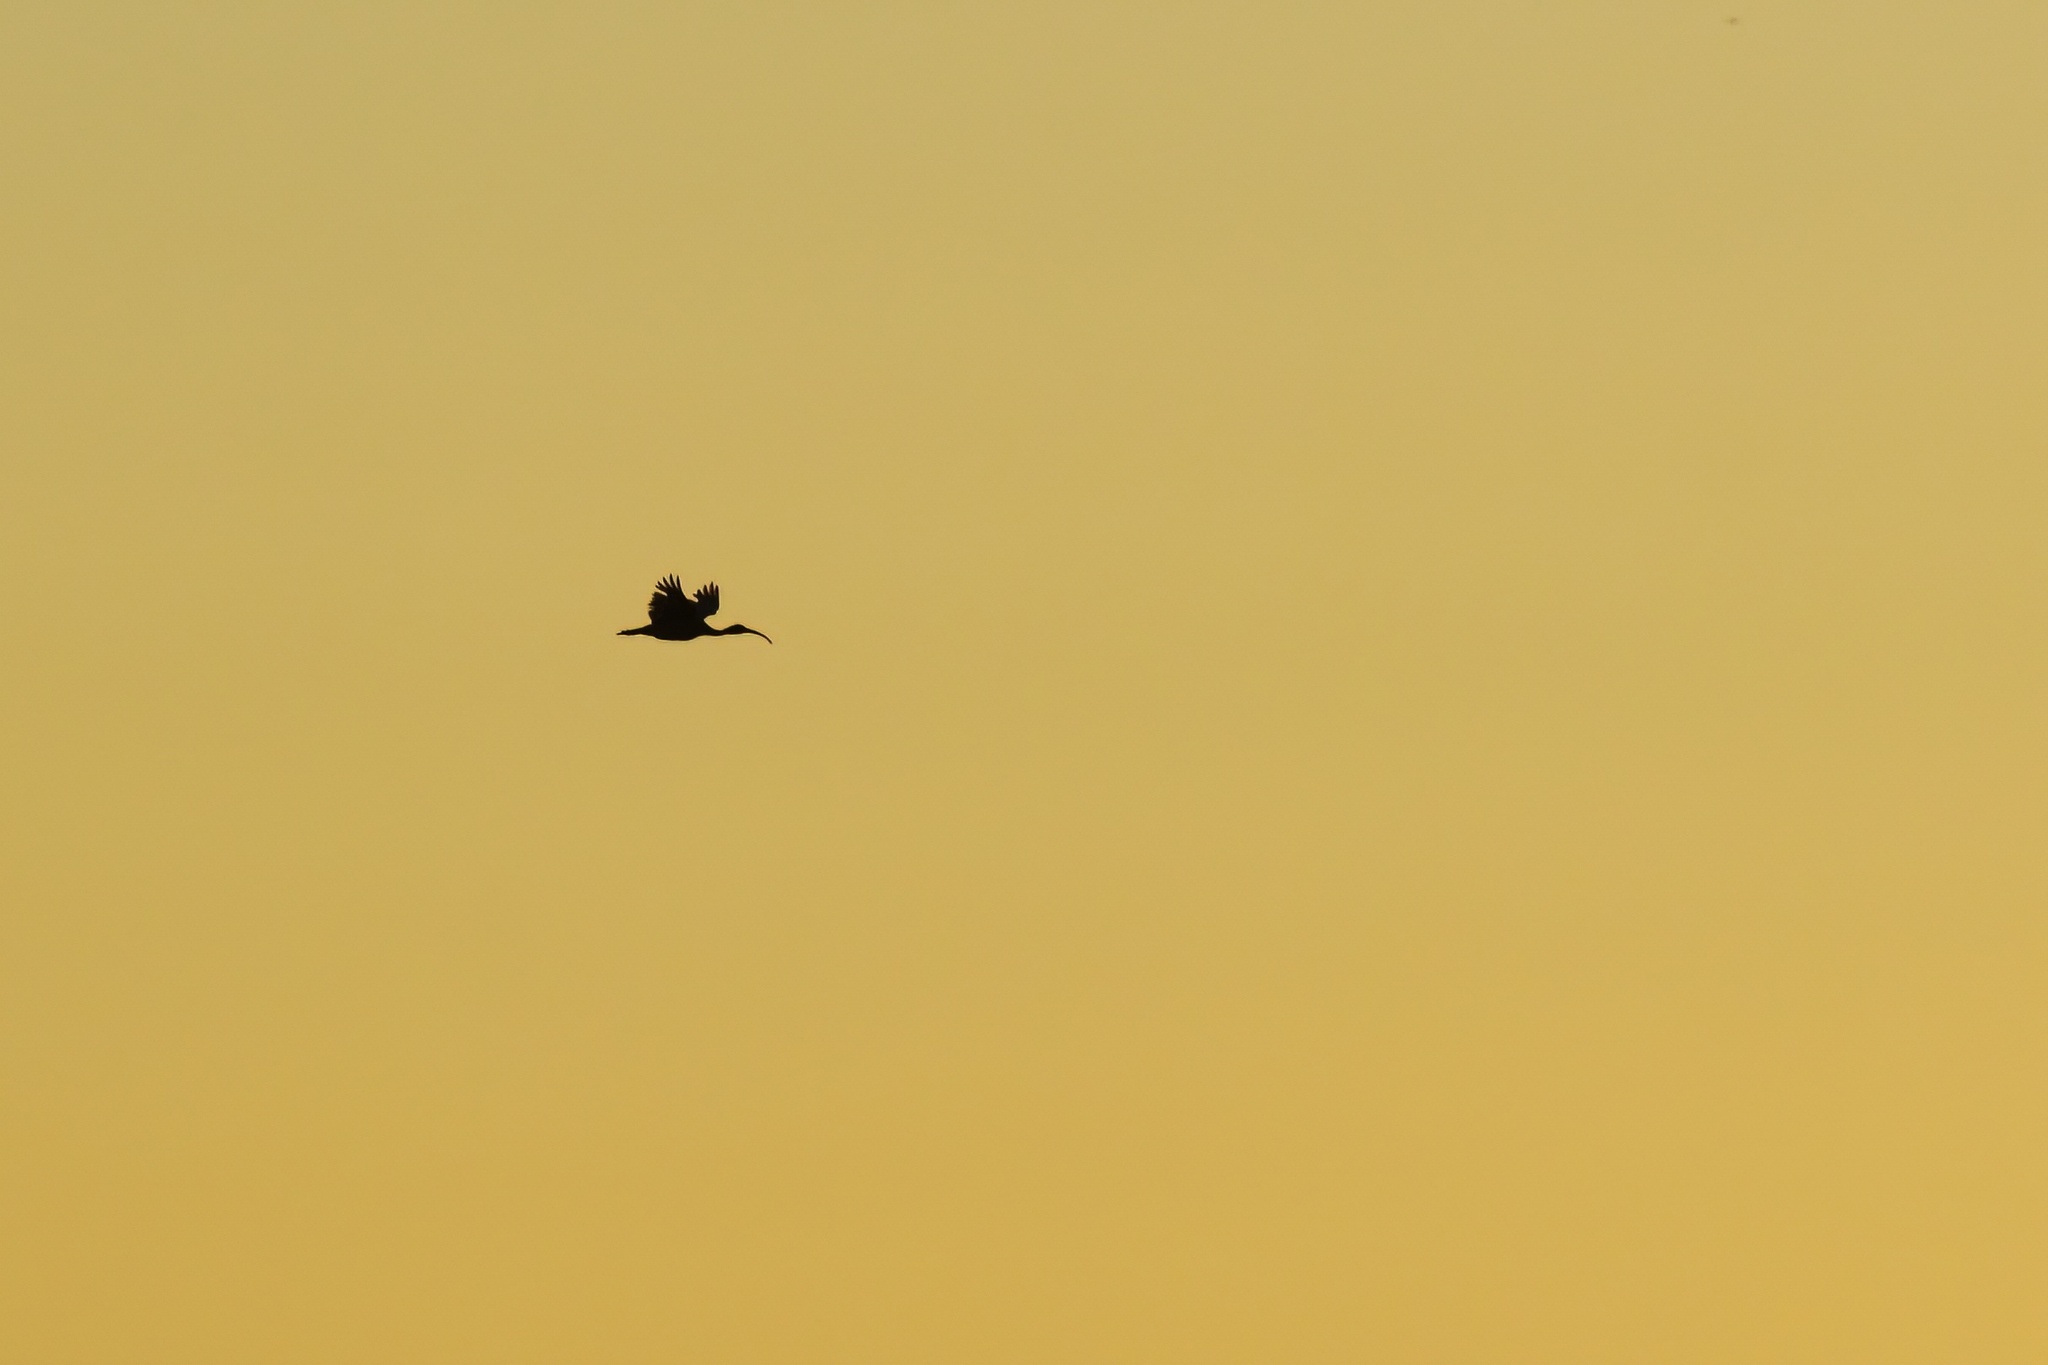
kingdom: Animalia
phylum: Chordata
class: Aves
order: Pelecaniformes
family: Threskiornithidae
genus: Threskiornis
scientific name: Threskiornis molucca
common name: Australian white ibis
